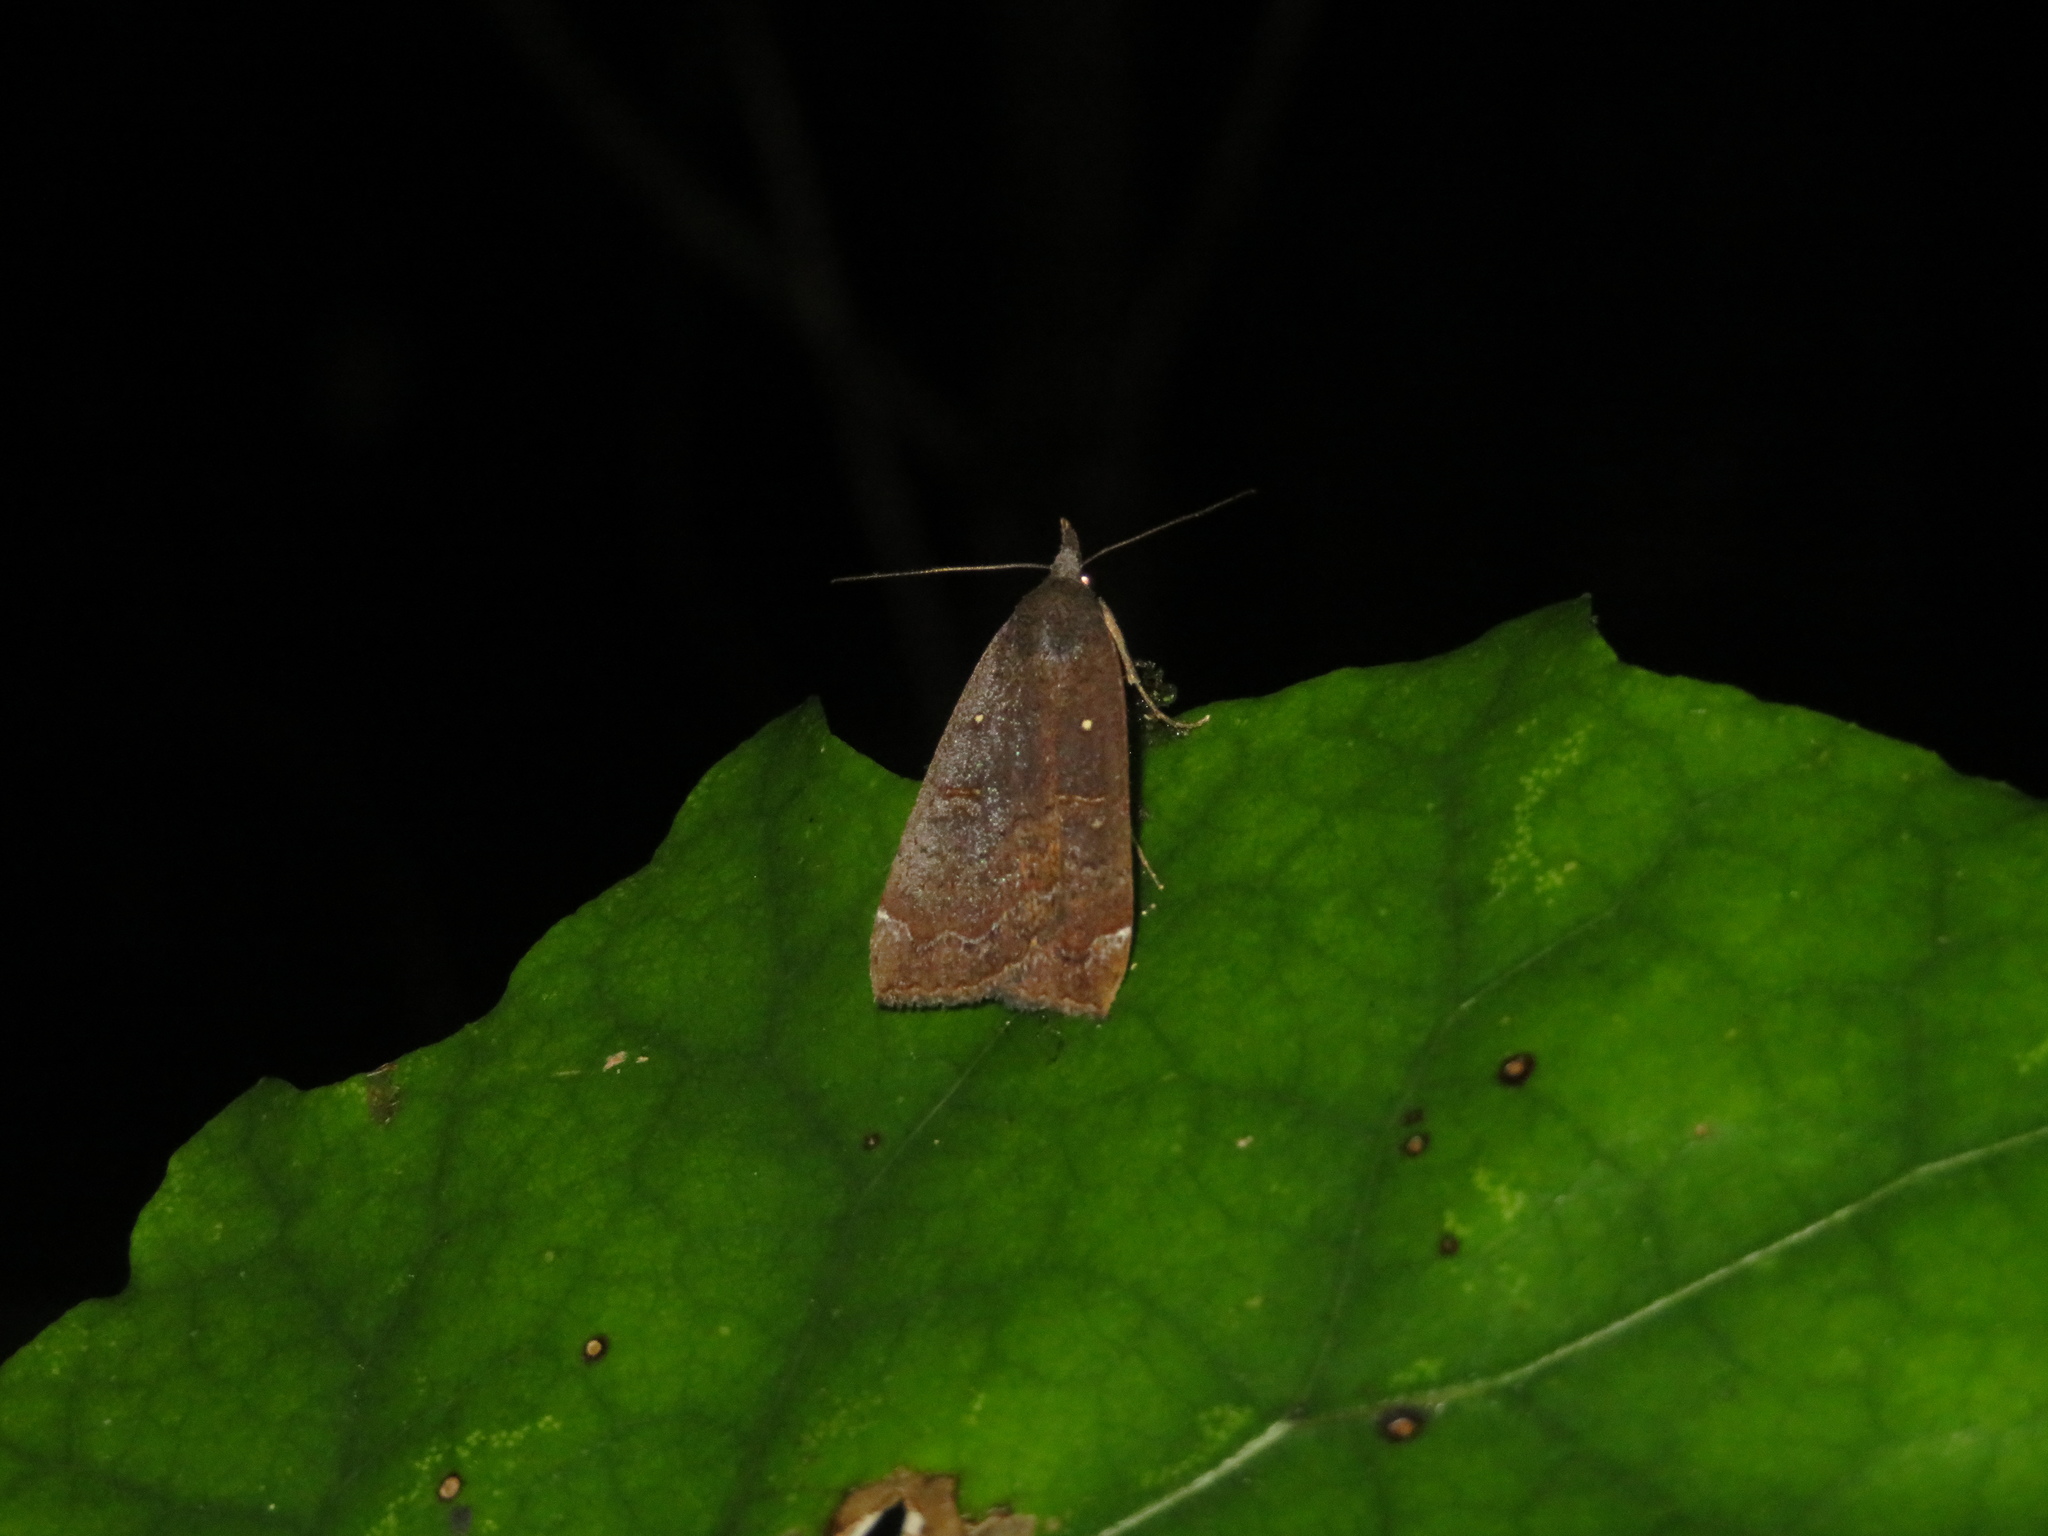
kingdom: Animalia
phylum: Arthropoda
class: Insecta
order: Lepidoptera
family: Erebidae
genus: Rhapsa
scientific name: Rhapsa scotosialis
